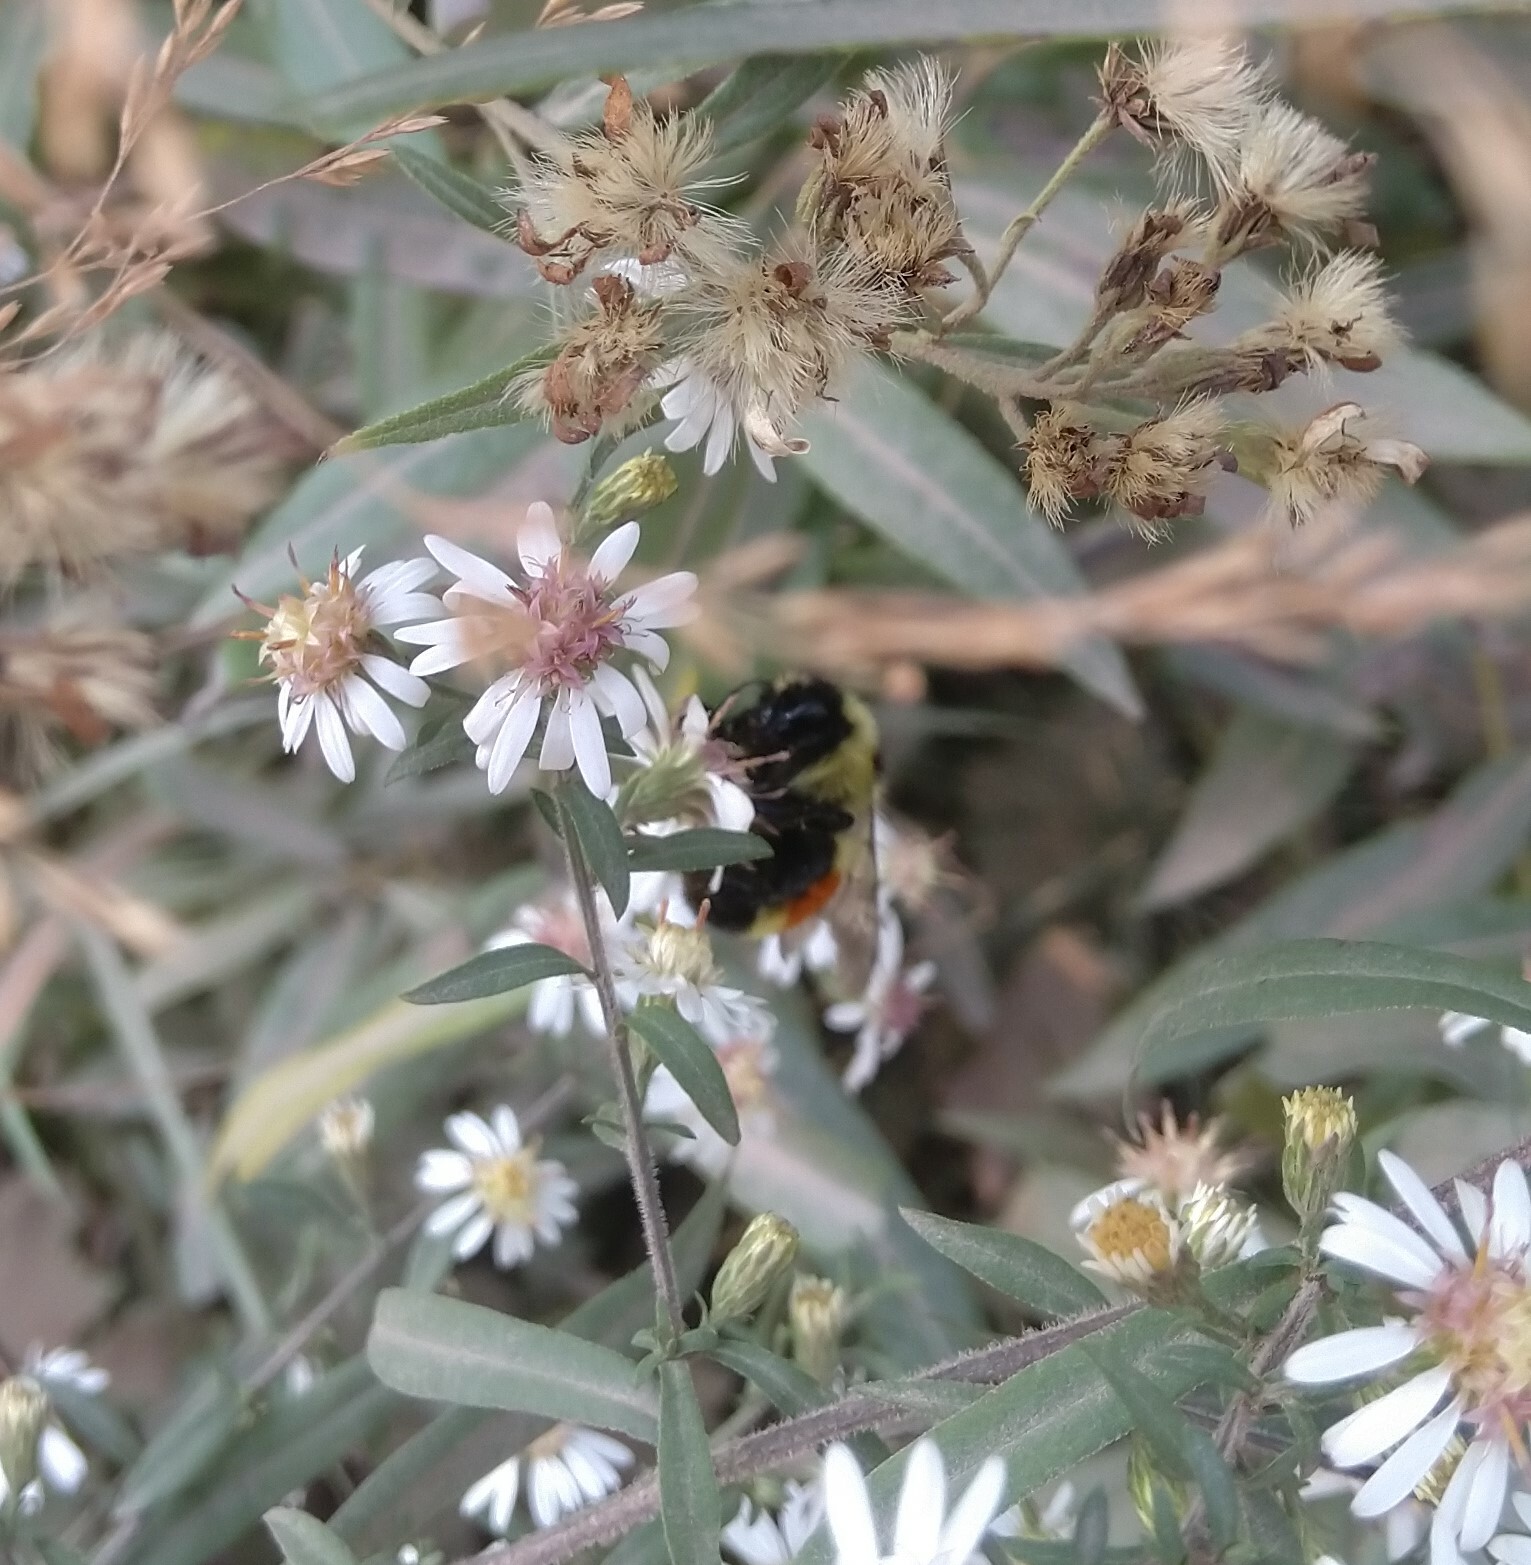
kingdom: Animalia
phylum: Arthropoda
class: Insecta
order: Hymenoptera
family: Apidae
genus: Bombus
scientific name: Bombus ternarius
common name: Tri-colored bumble bee
